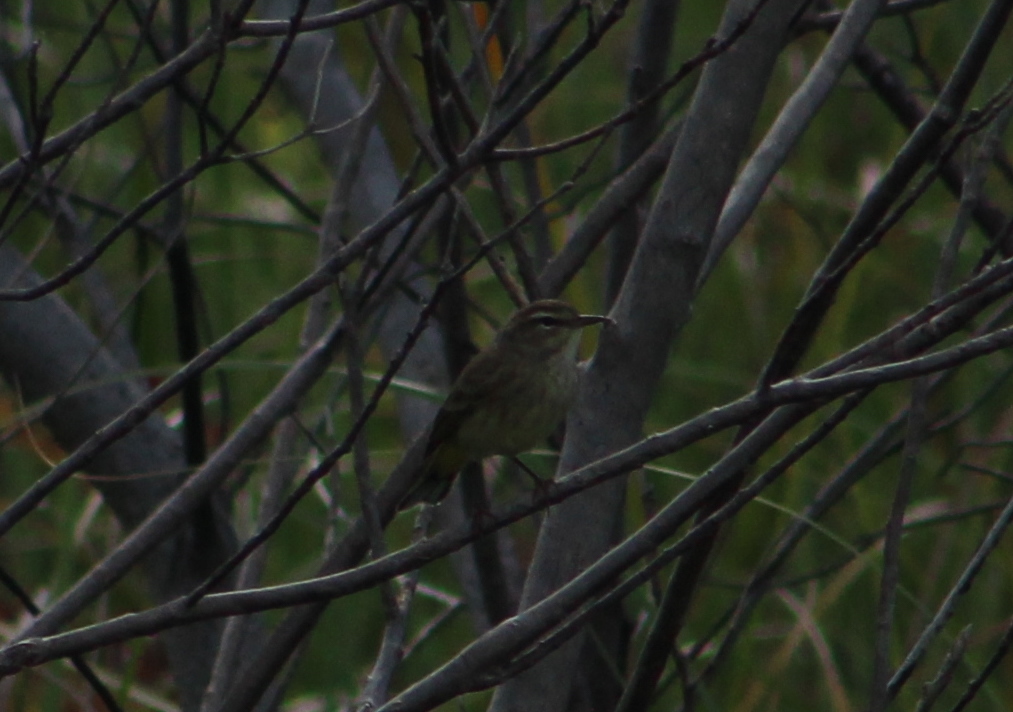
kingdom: Animalia
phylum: Chordata
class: Aves
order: Passeriformes
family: Parulidae
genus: Setophaga
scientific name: Setophaga palmarum
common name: Palm warbler
